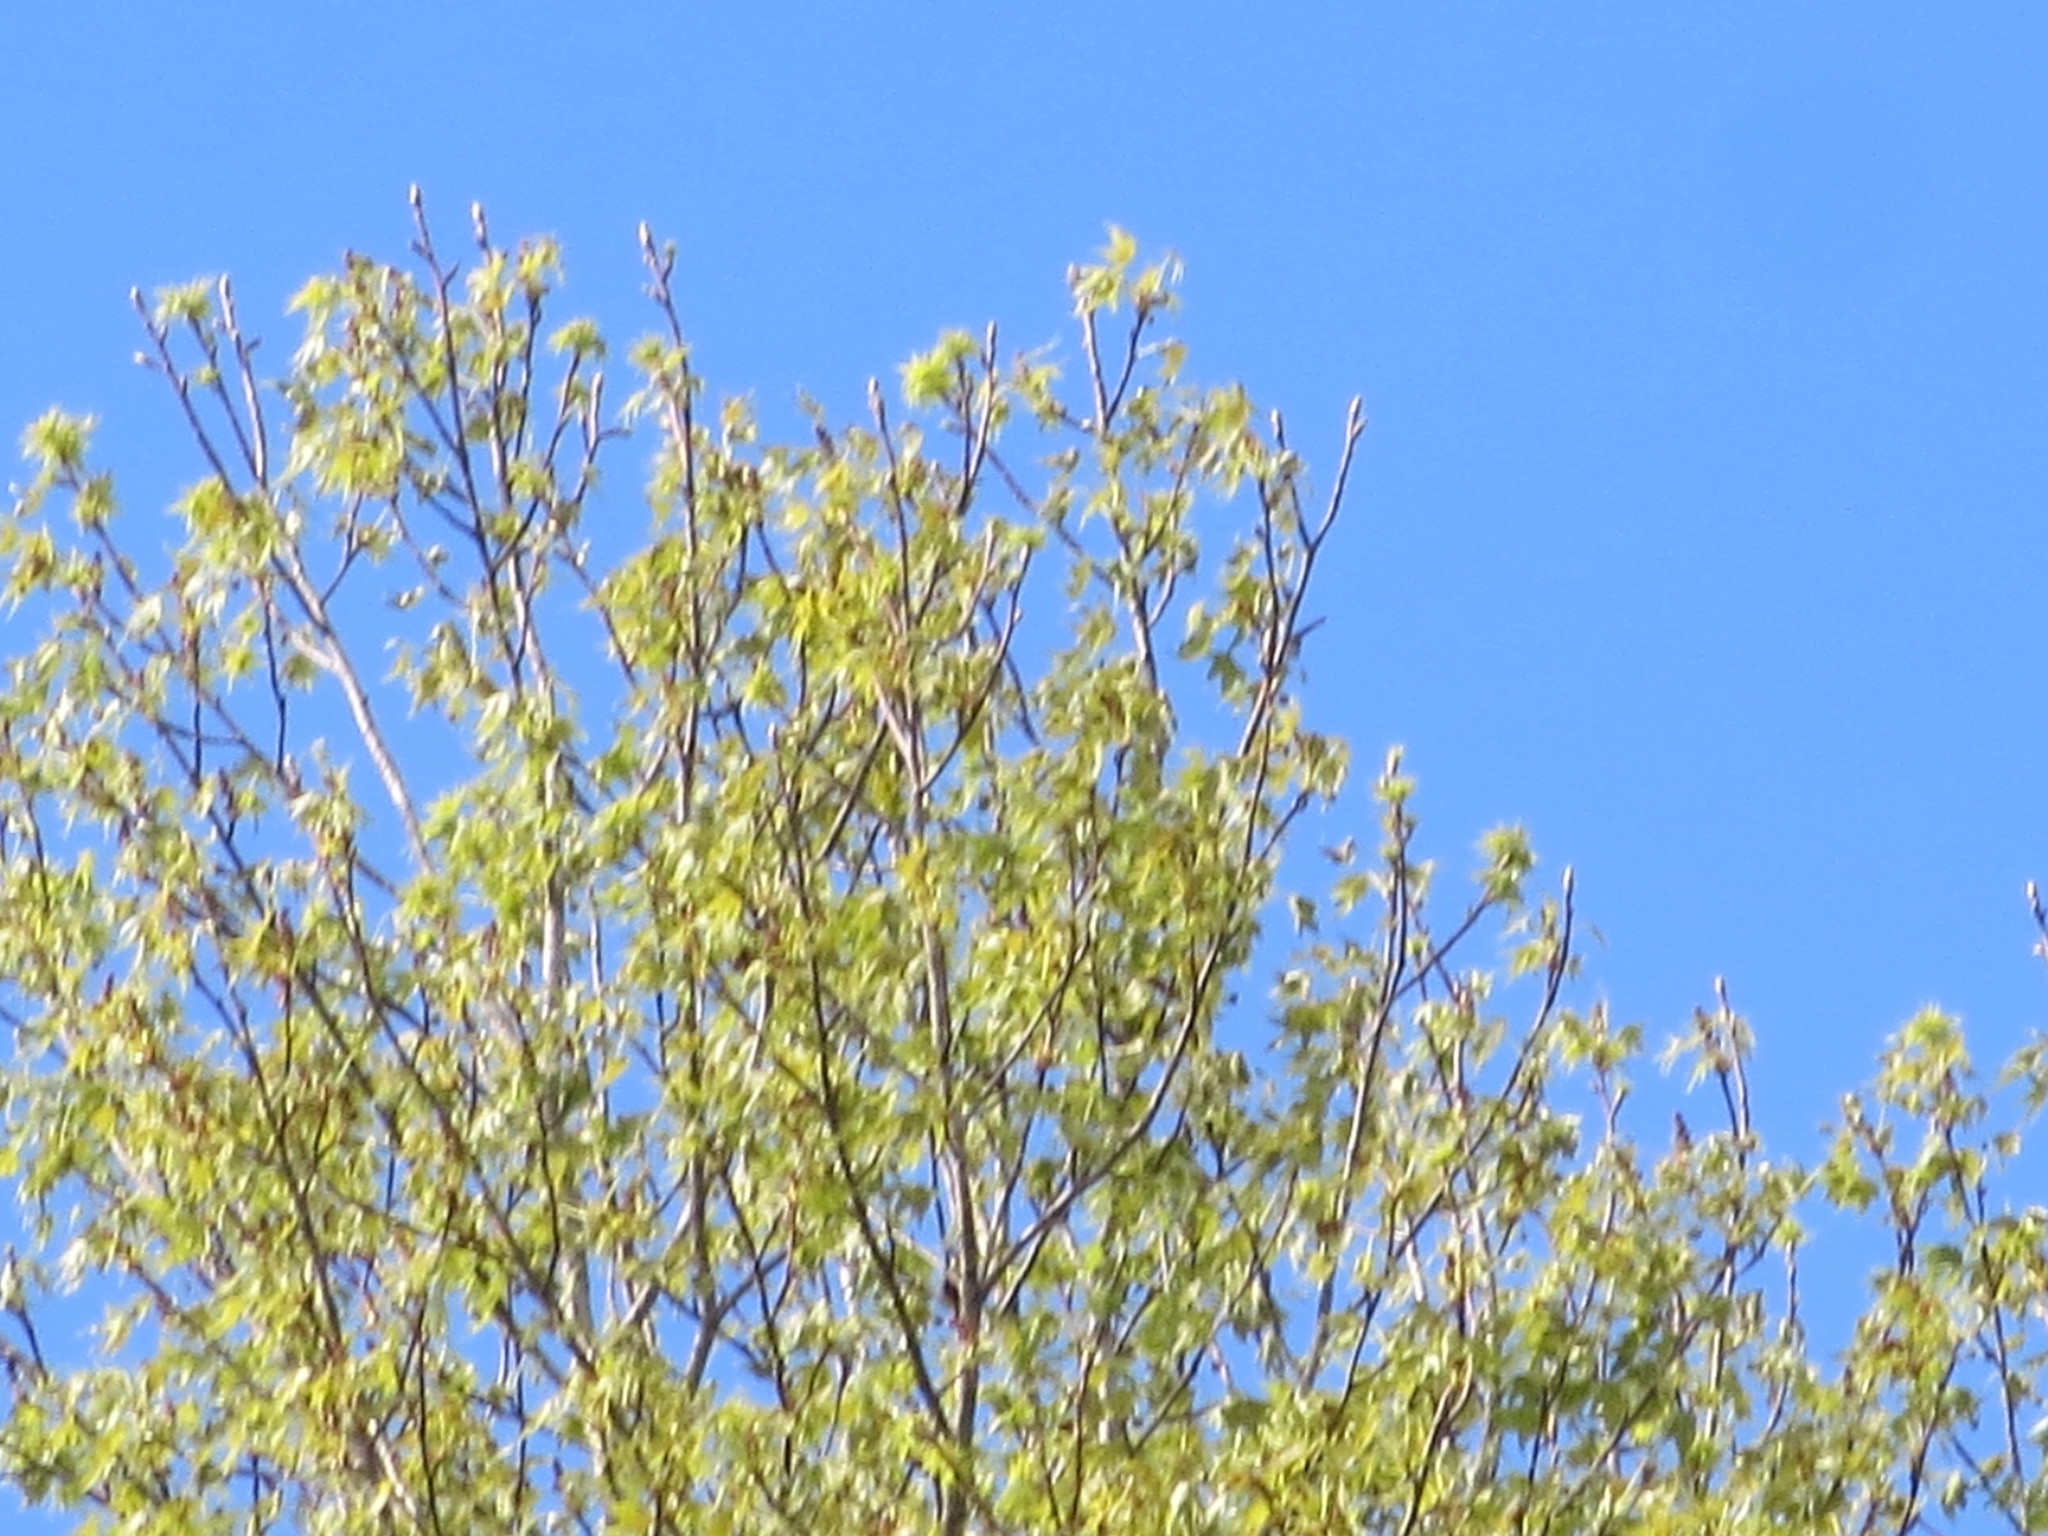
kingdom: Plantae
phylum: Tracheophyta
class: Magnoliopsida
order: Saxifragales
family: Altingiaceae
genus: Liquidambar
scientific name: Liquidambar styraciflua
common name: Sweet gum
